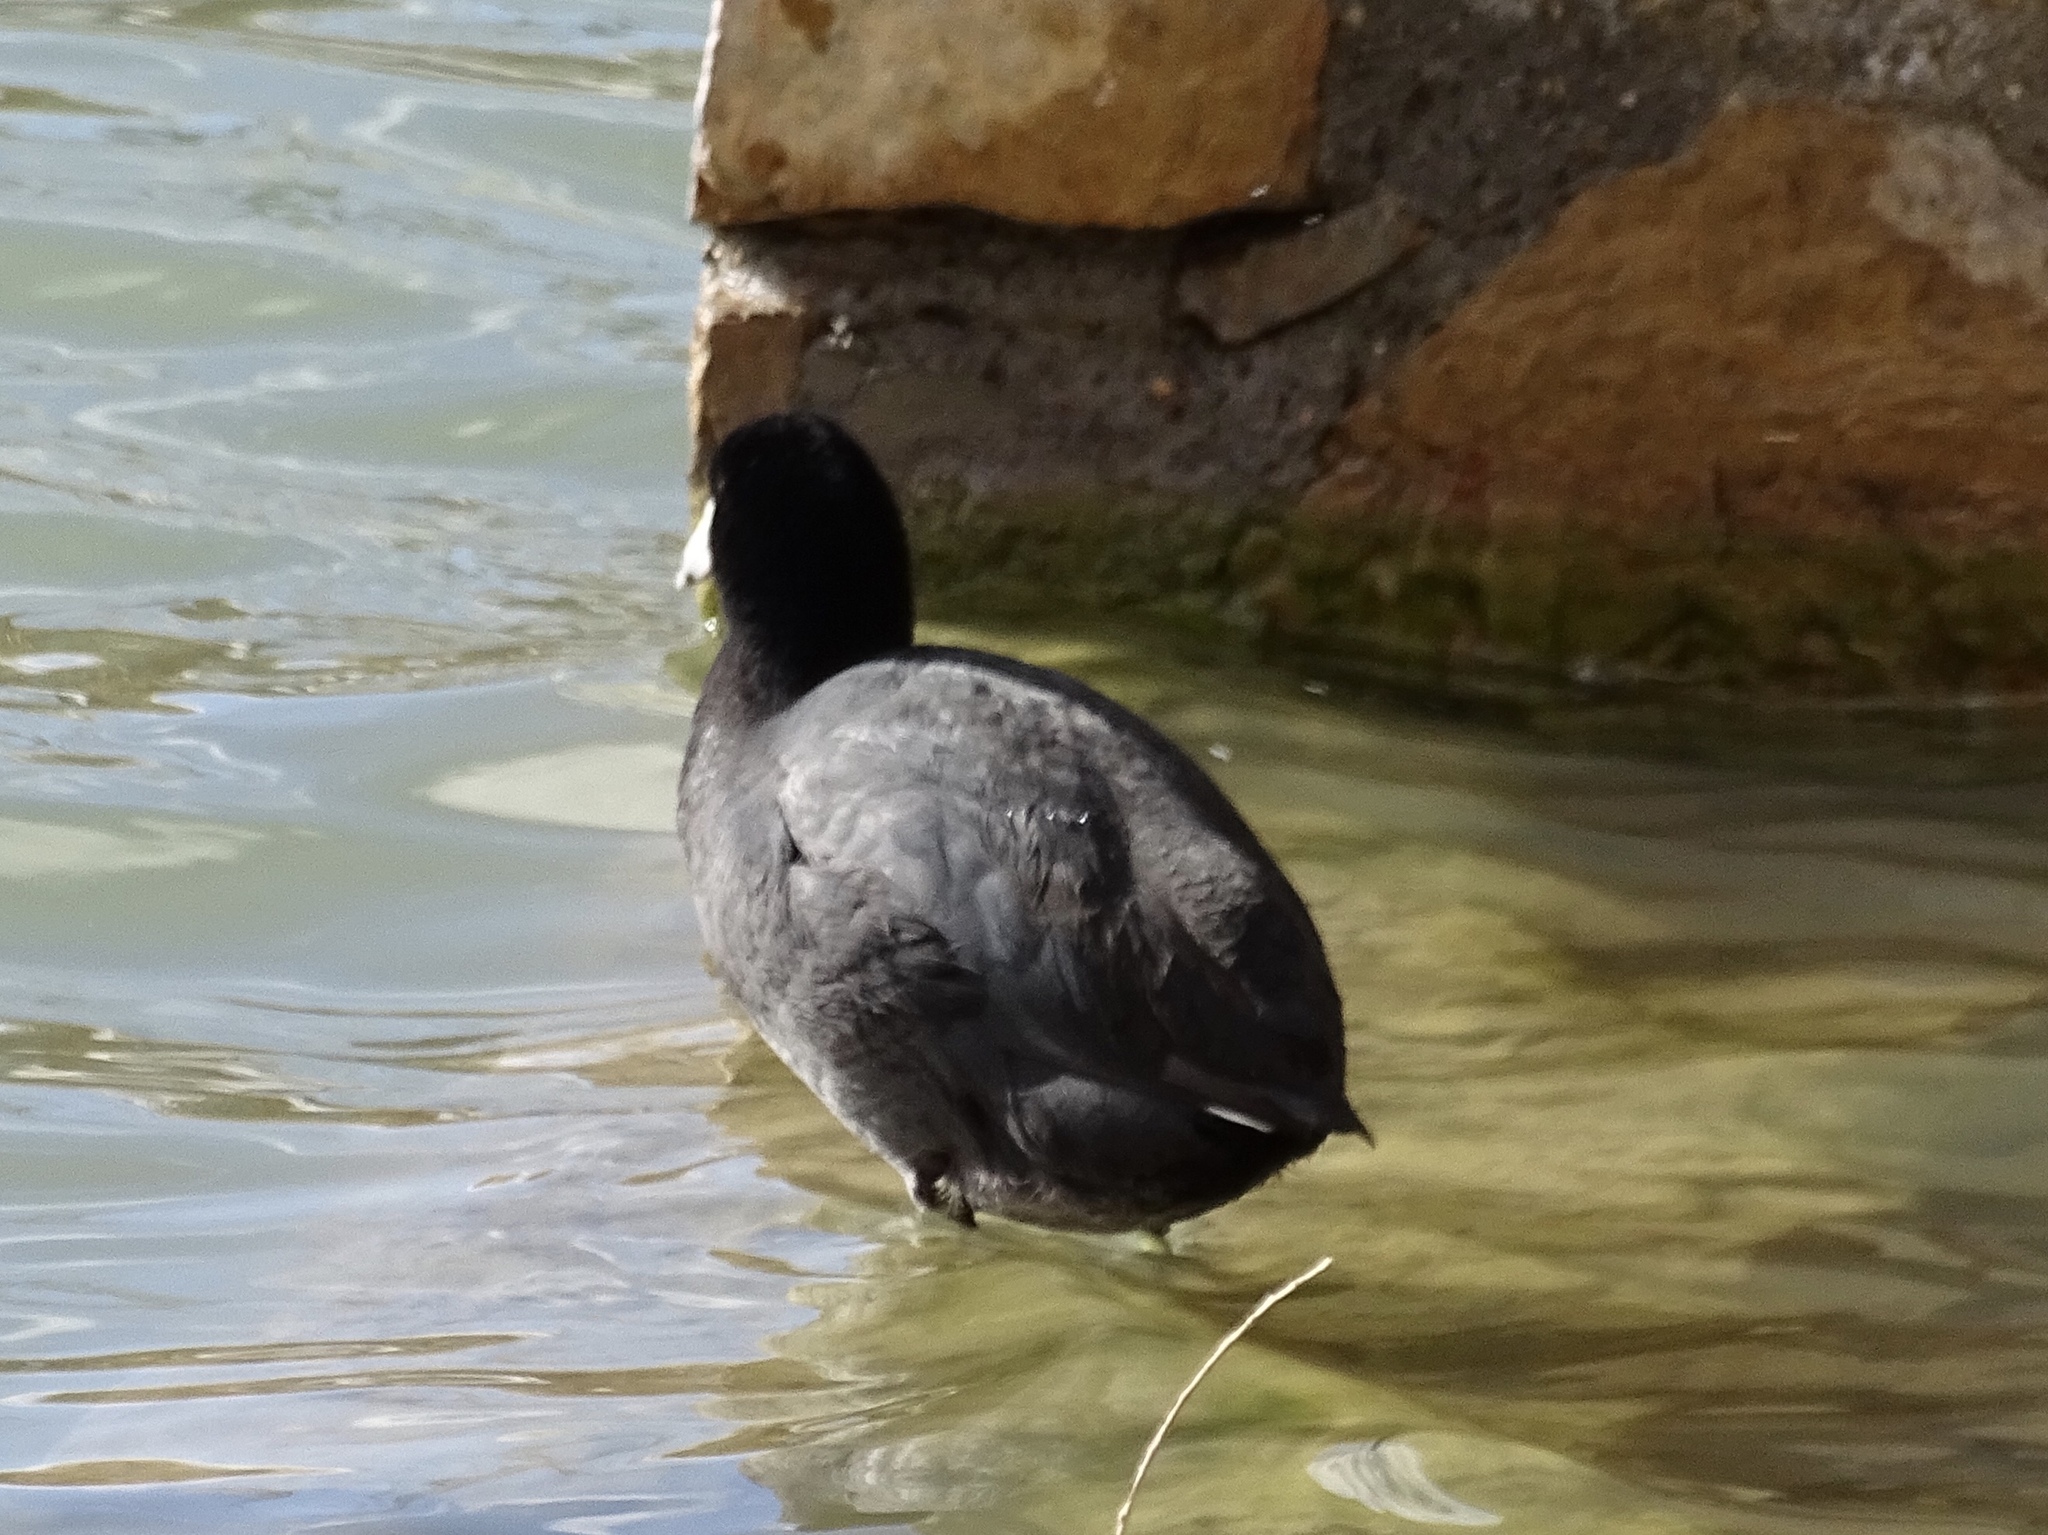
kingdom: Animalia
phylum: Chordata
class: Aves
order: Gruiformes
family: Rallidae
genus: Fulica
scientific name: Fulica americana
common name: American coot
